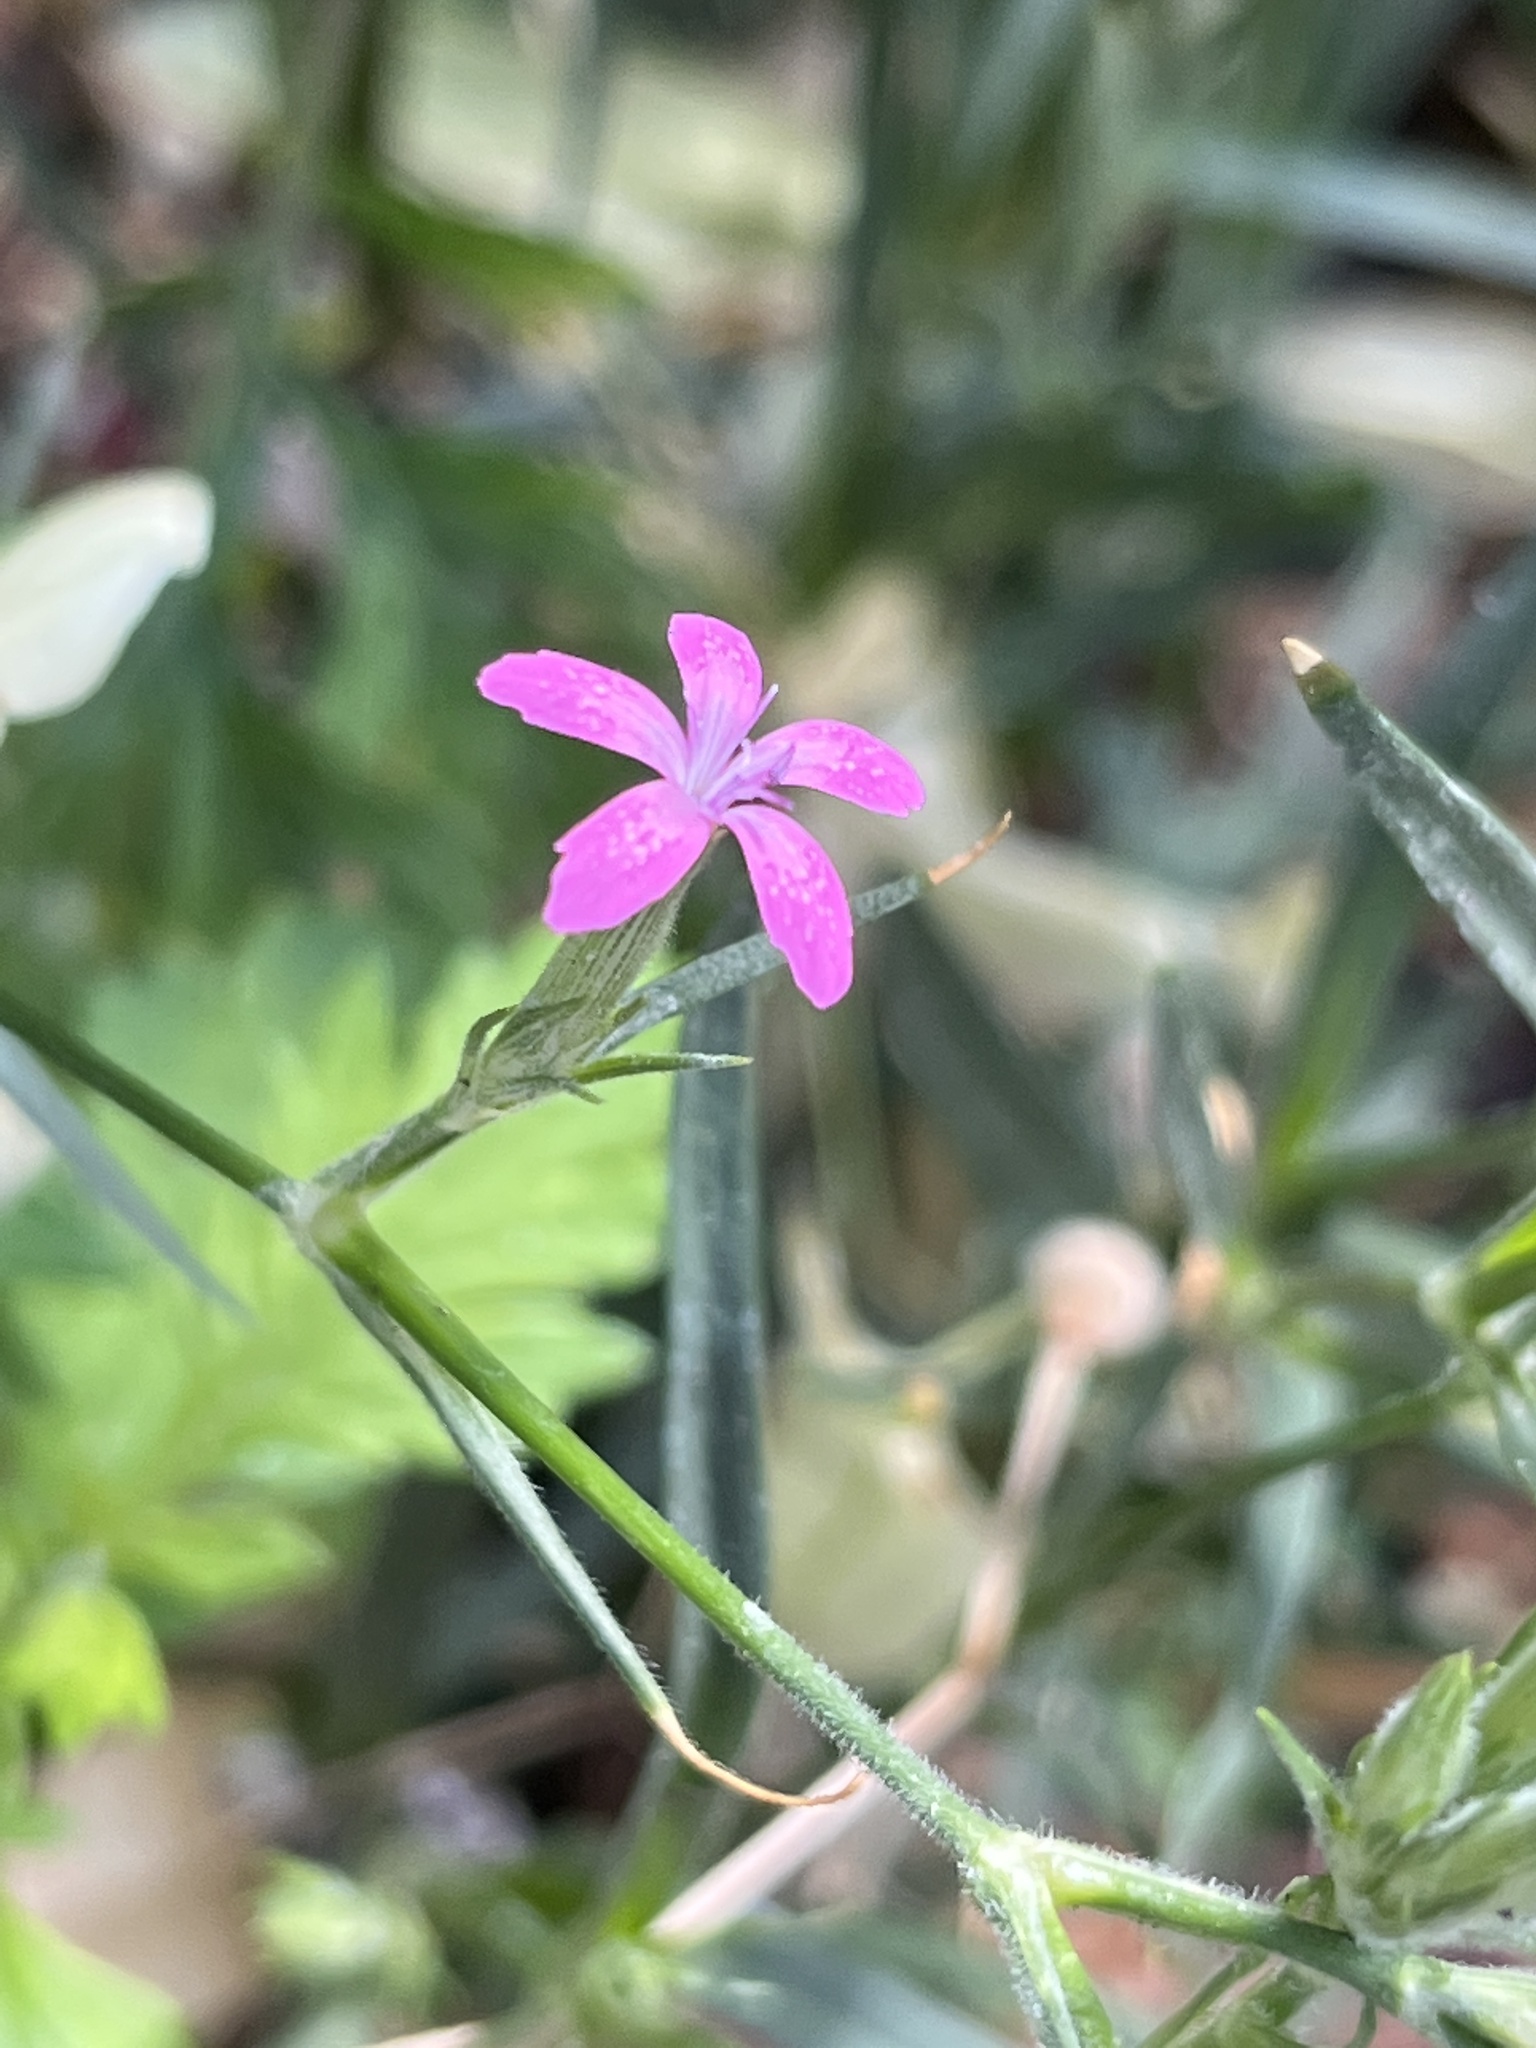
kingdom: Plantae
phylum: Tracheophyta
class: Magnoliopsida
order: Caryophyllales
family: Caryophyllaceae
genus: Dianthus
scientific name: Dianthus armeria
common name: Deptford pink
